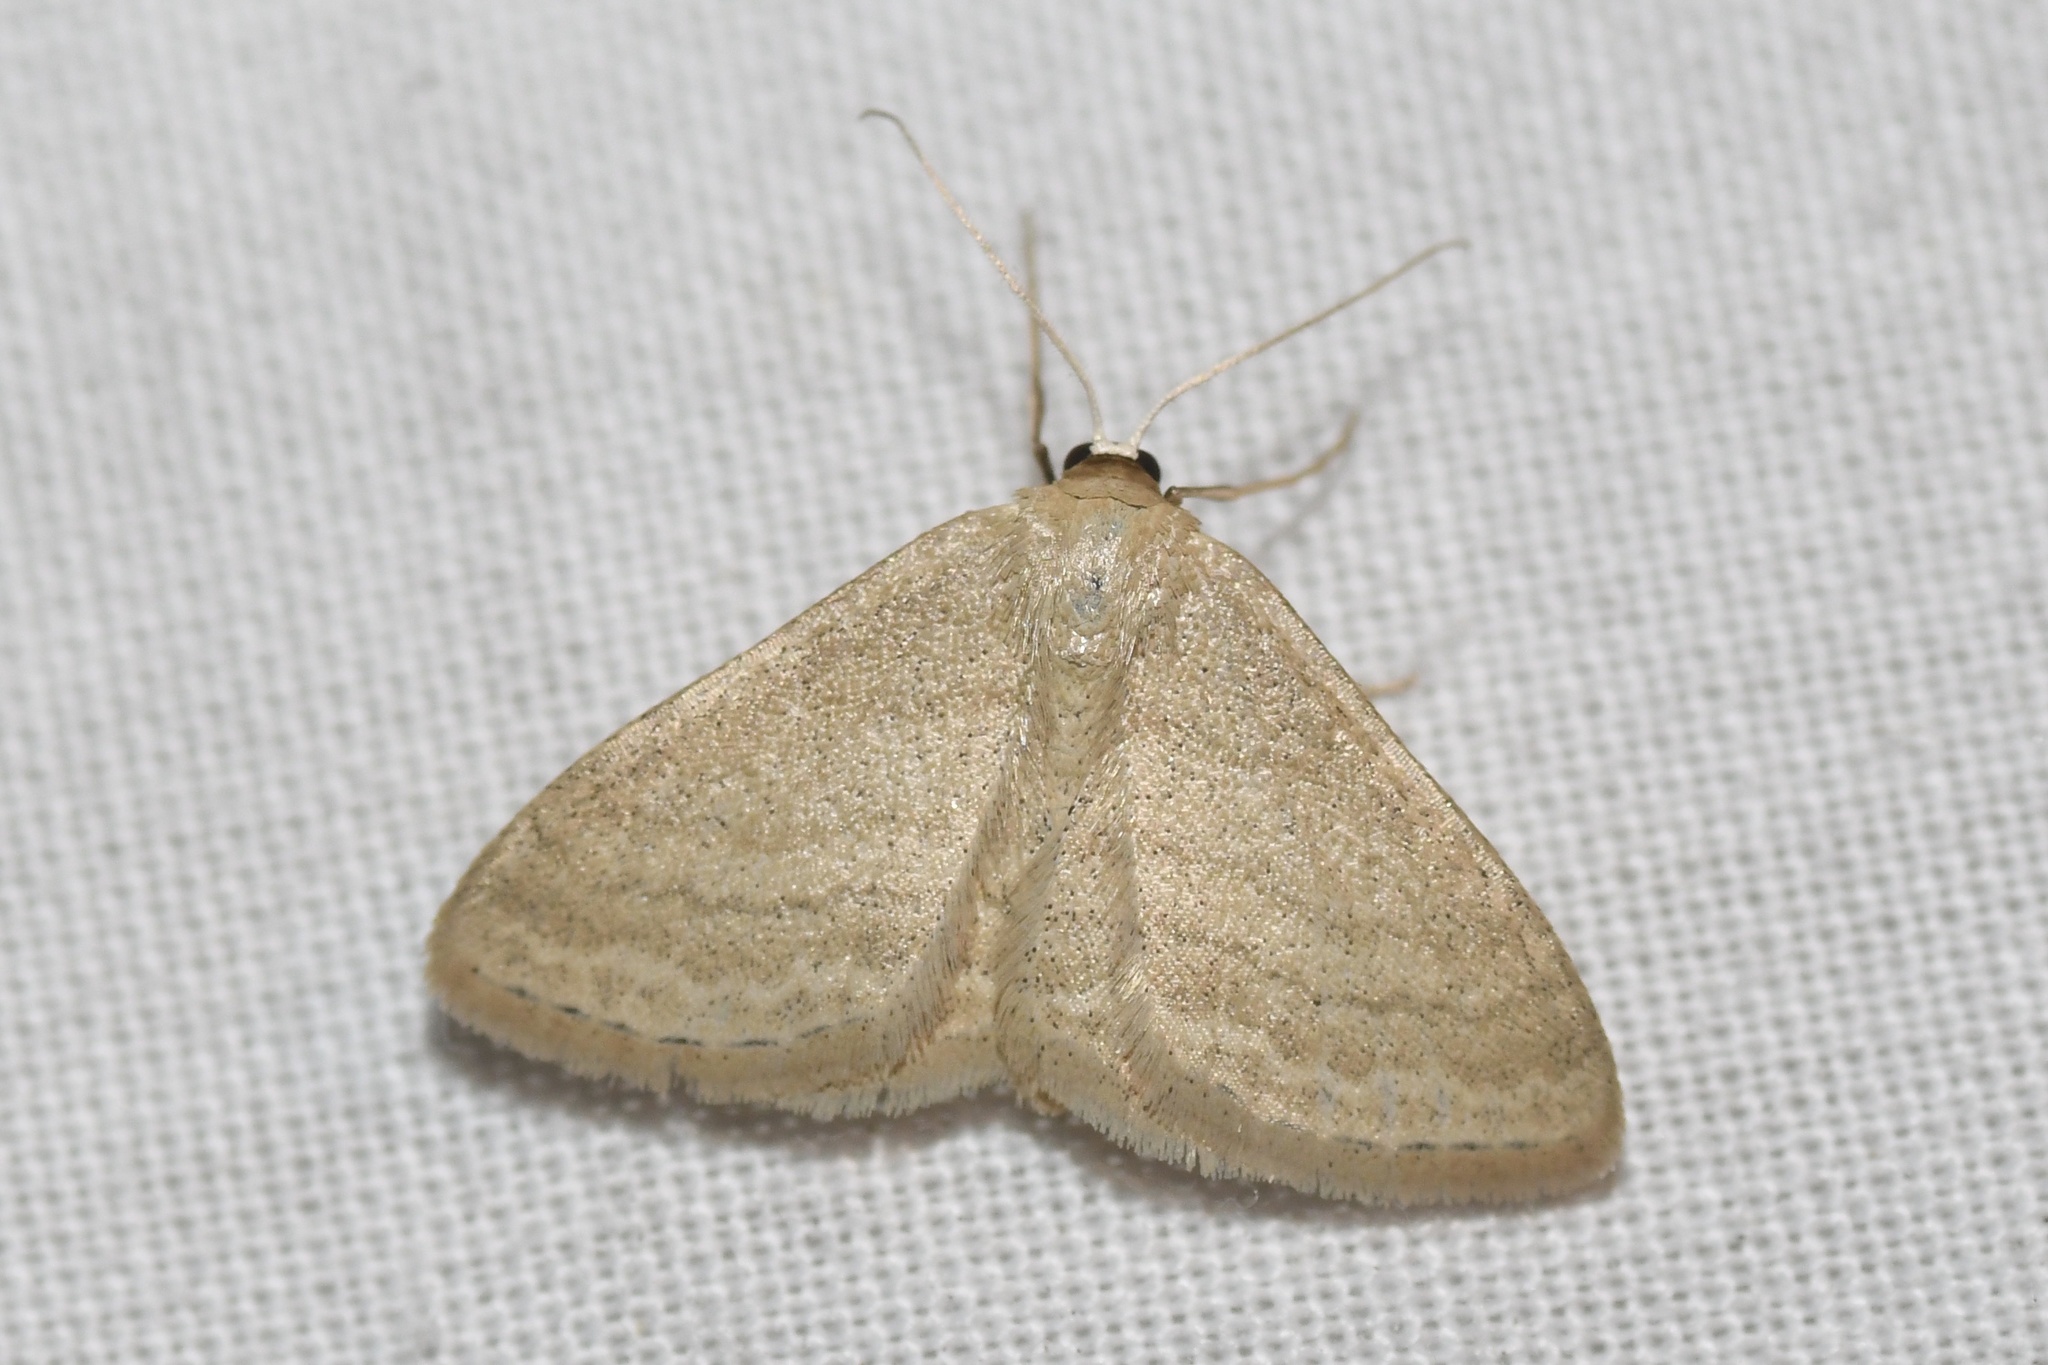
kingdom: Animalia
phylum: Arthropoda
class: Insecta
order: Lepidoptera
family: Geometridae
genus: Scopula
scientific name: Scopula inductata
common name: Soft-lined wave
